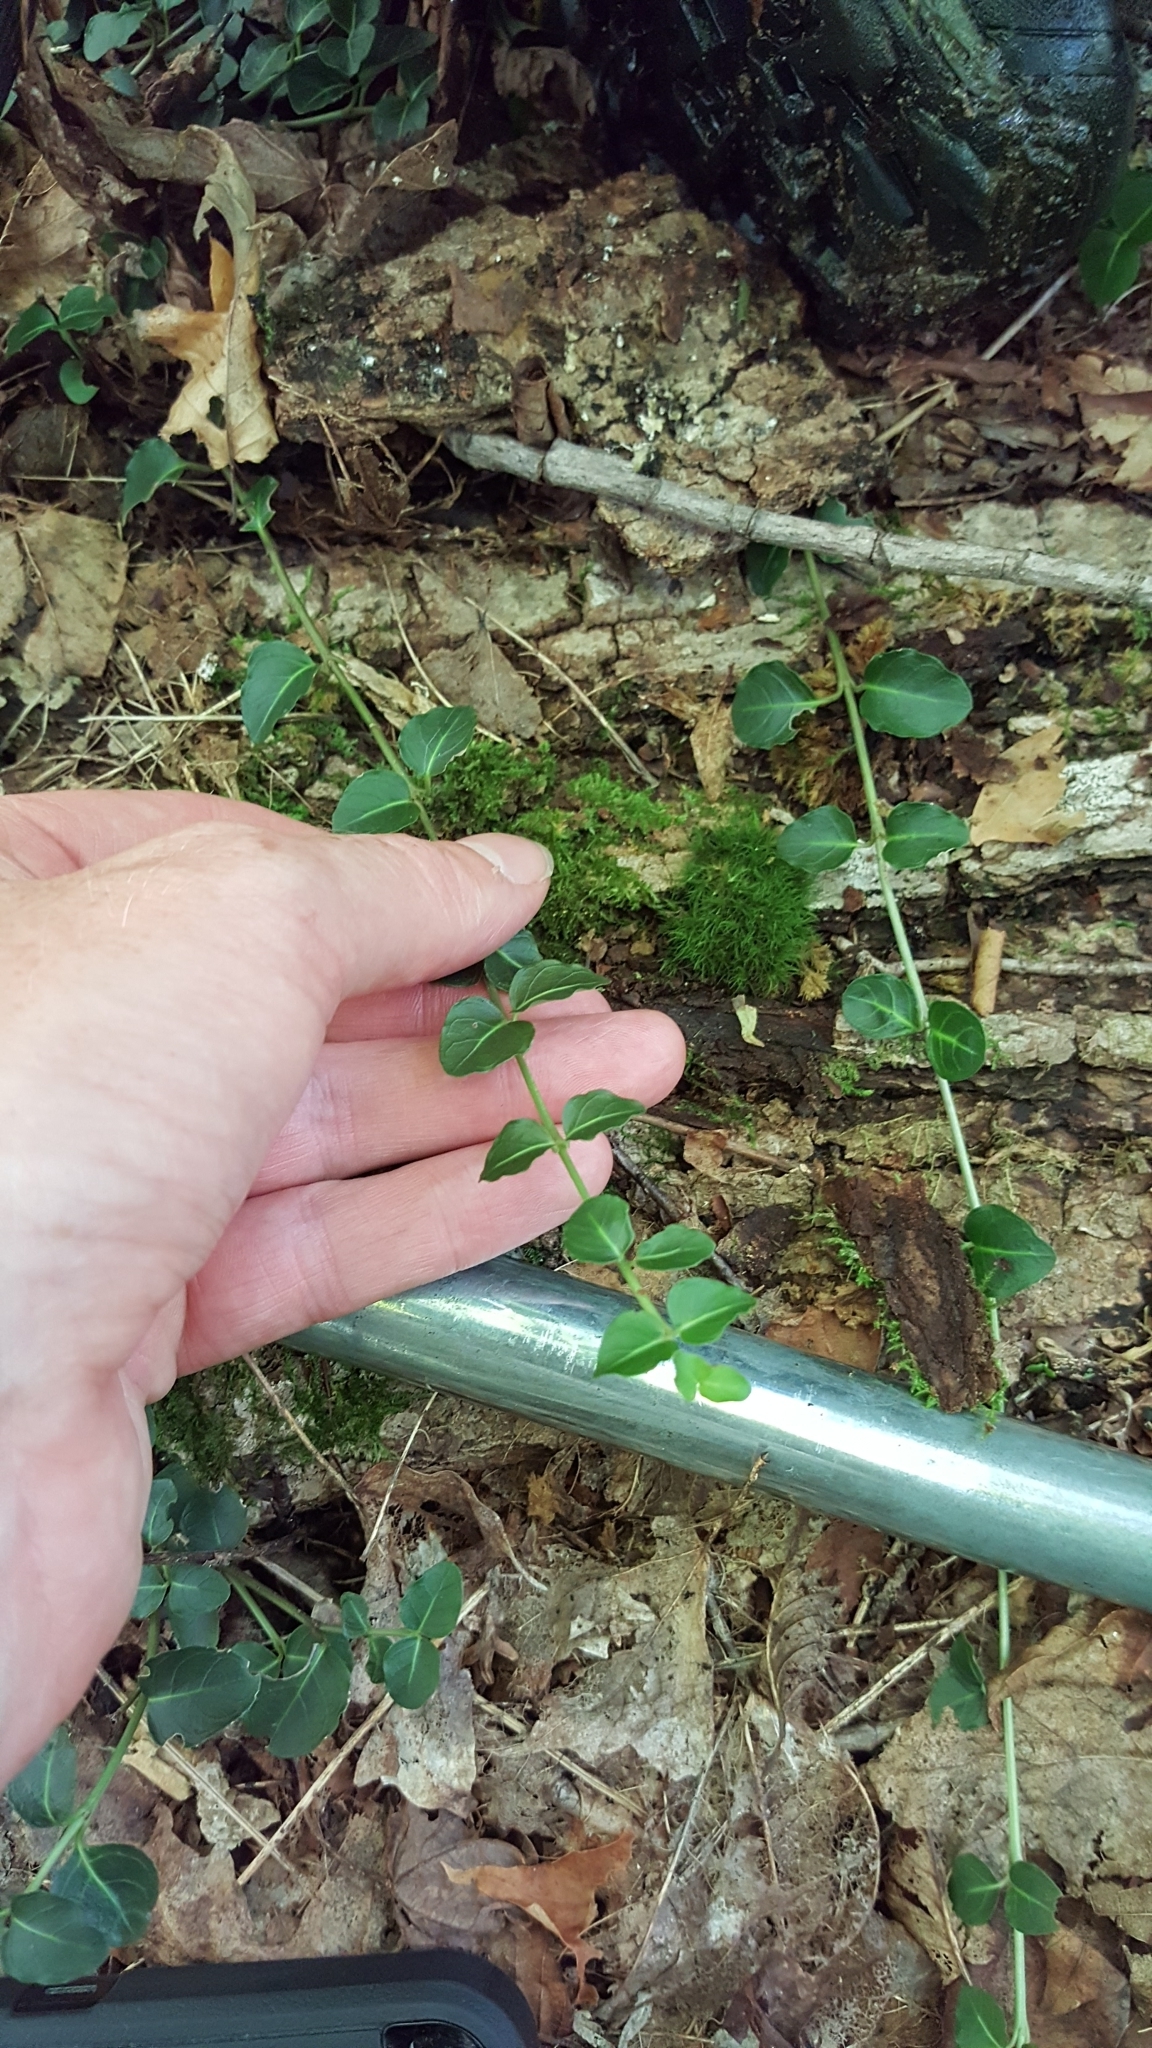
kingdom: Plantae
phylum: Tracheophyta
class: Magnoliopsida
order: Gentianales
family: Rubiaceae
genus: Mitchella
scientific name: Mitchella repens
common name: Partridge-berry
